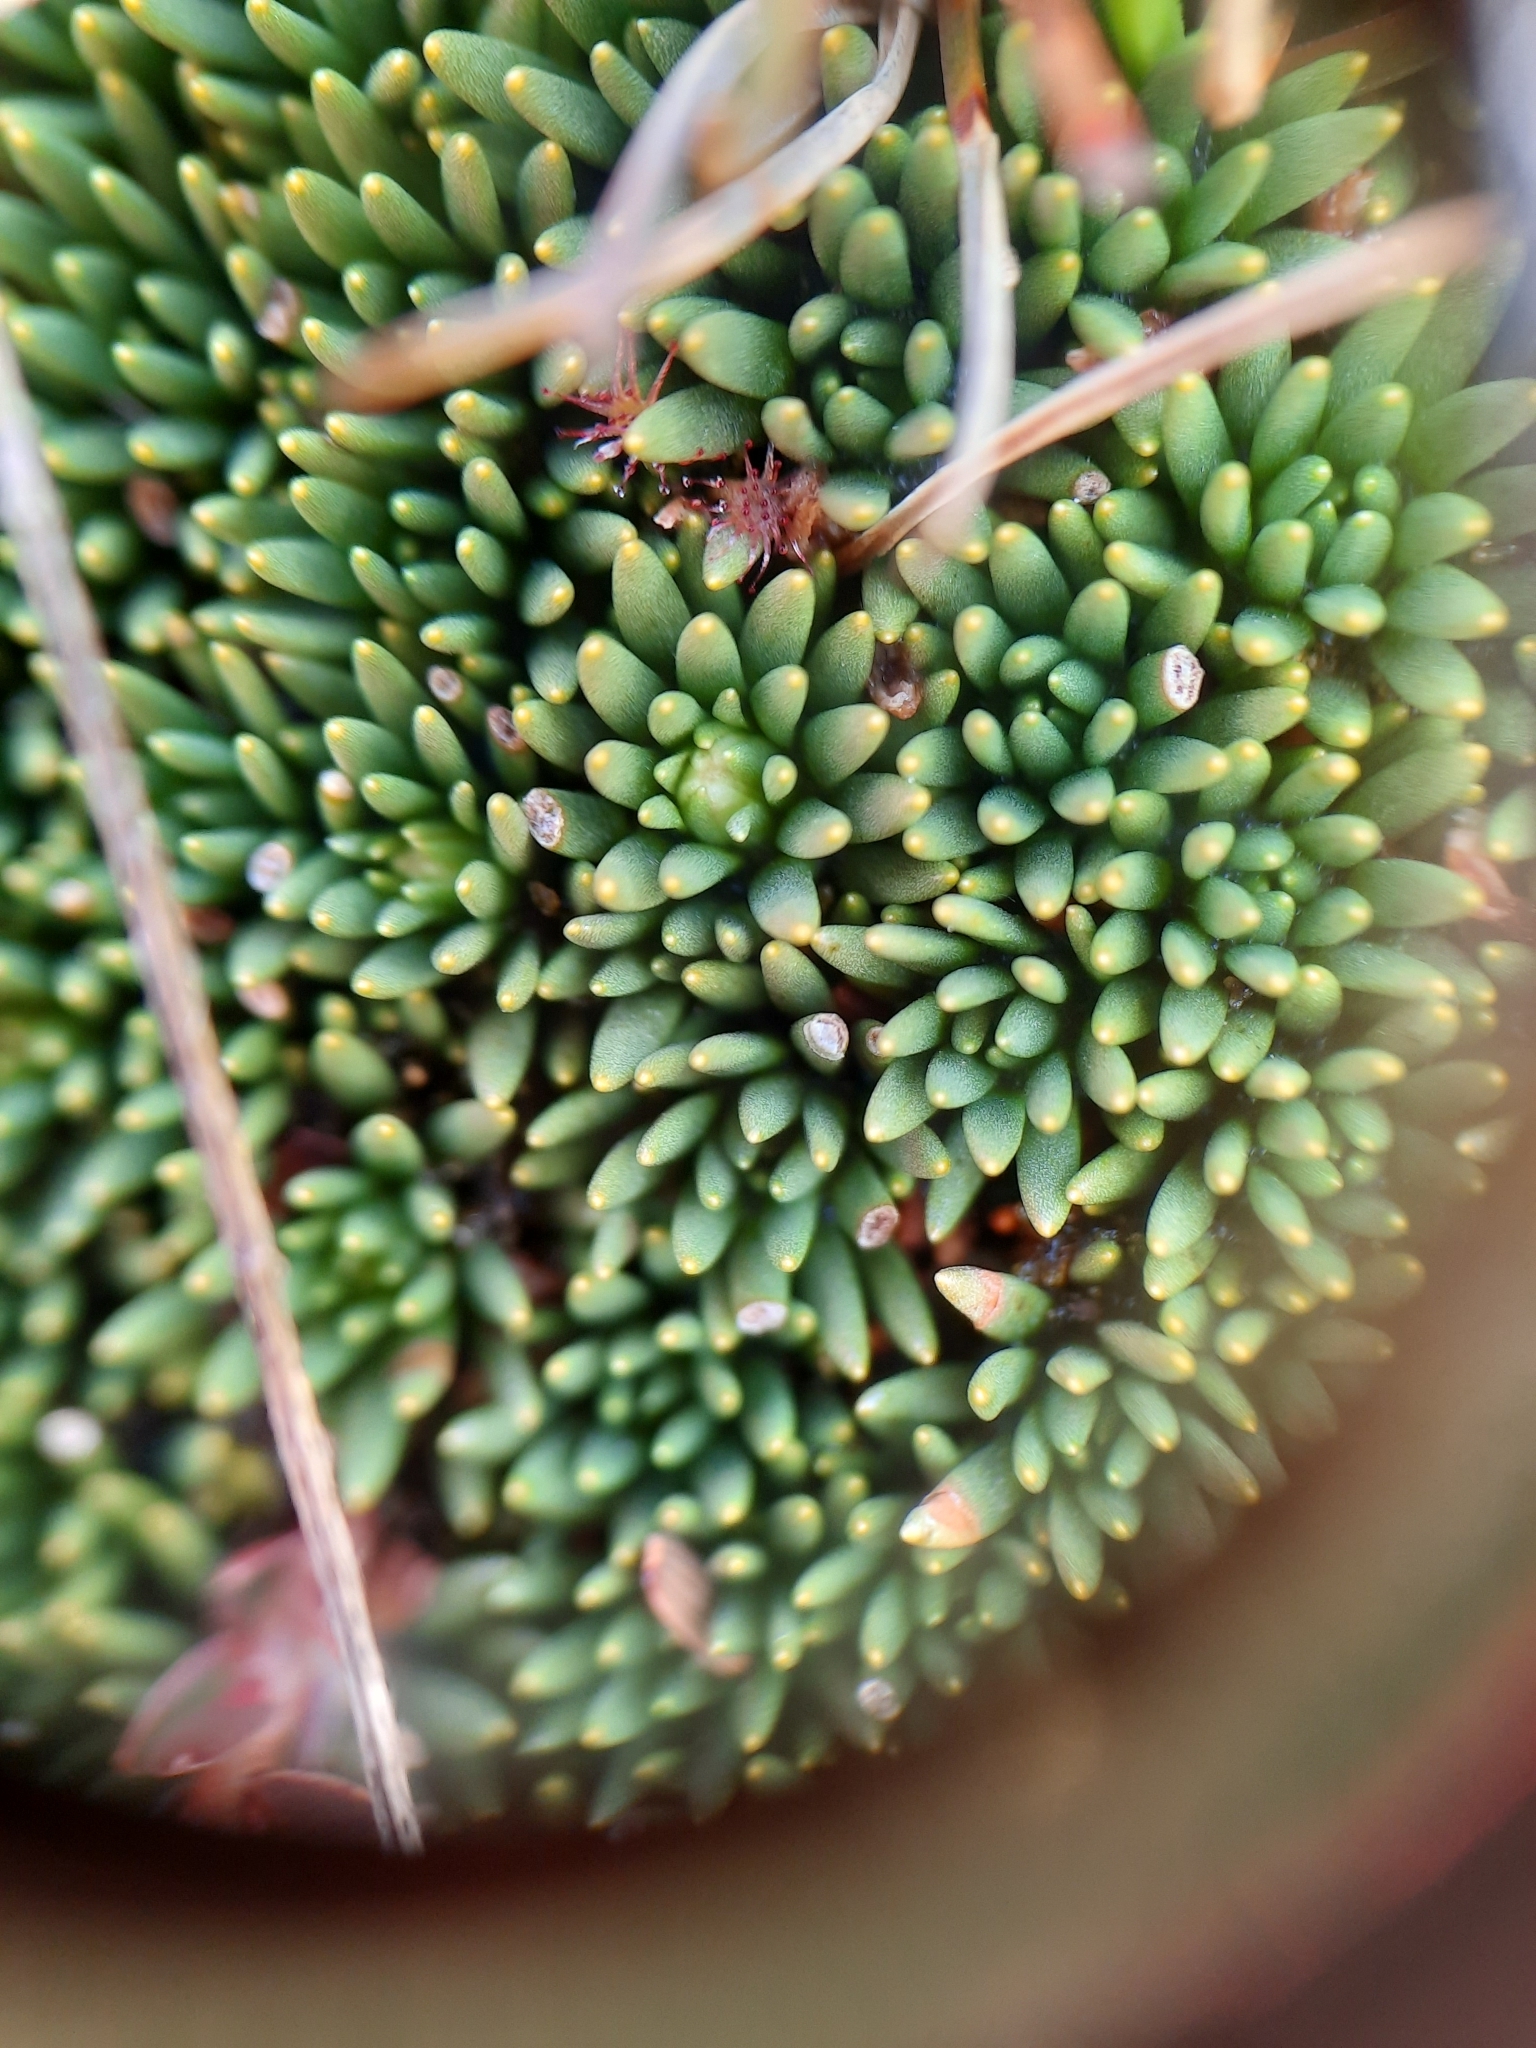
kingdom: Plantae
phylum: Tracheophyta
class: Magnoliopsida
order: Asterales
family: Stylidiaceae
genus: Donatia
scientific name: Donatia novae-zelandiae
